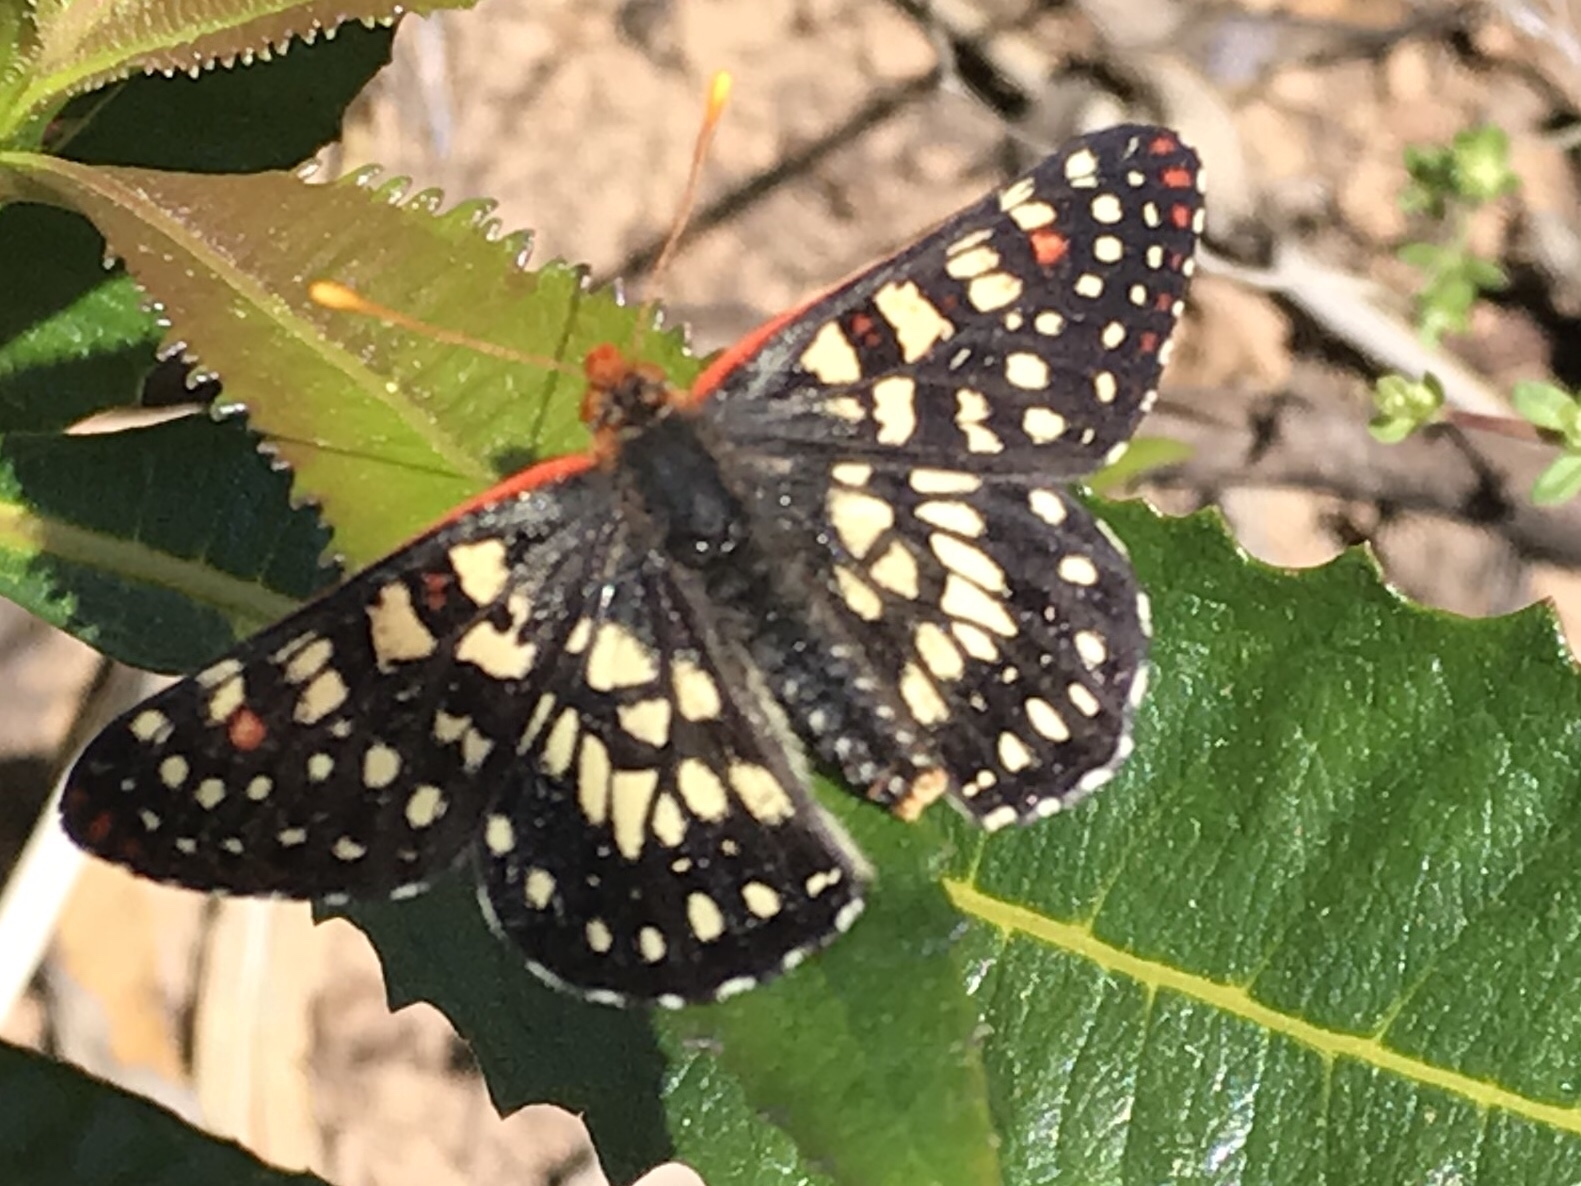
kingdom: Animalia
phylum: Arthropoda
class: Insecta
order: Lepidoptera
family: Nymphalidae
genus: Occidryas
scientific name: Occidryas chalcedona
